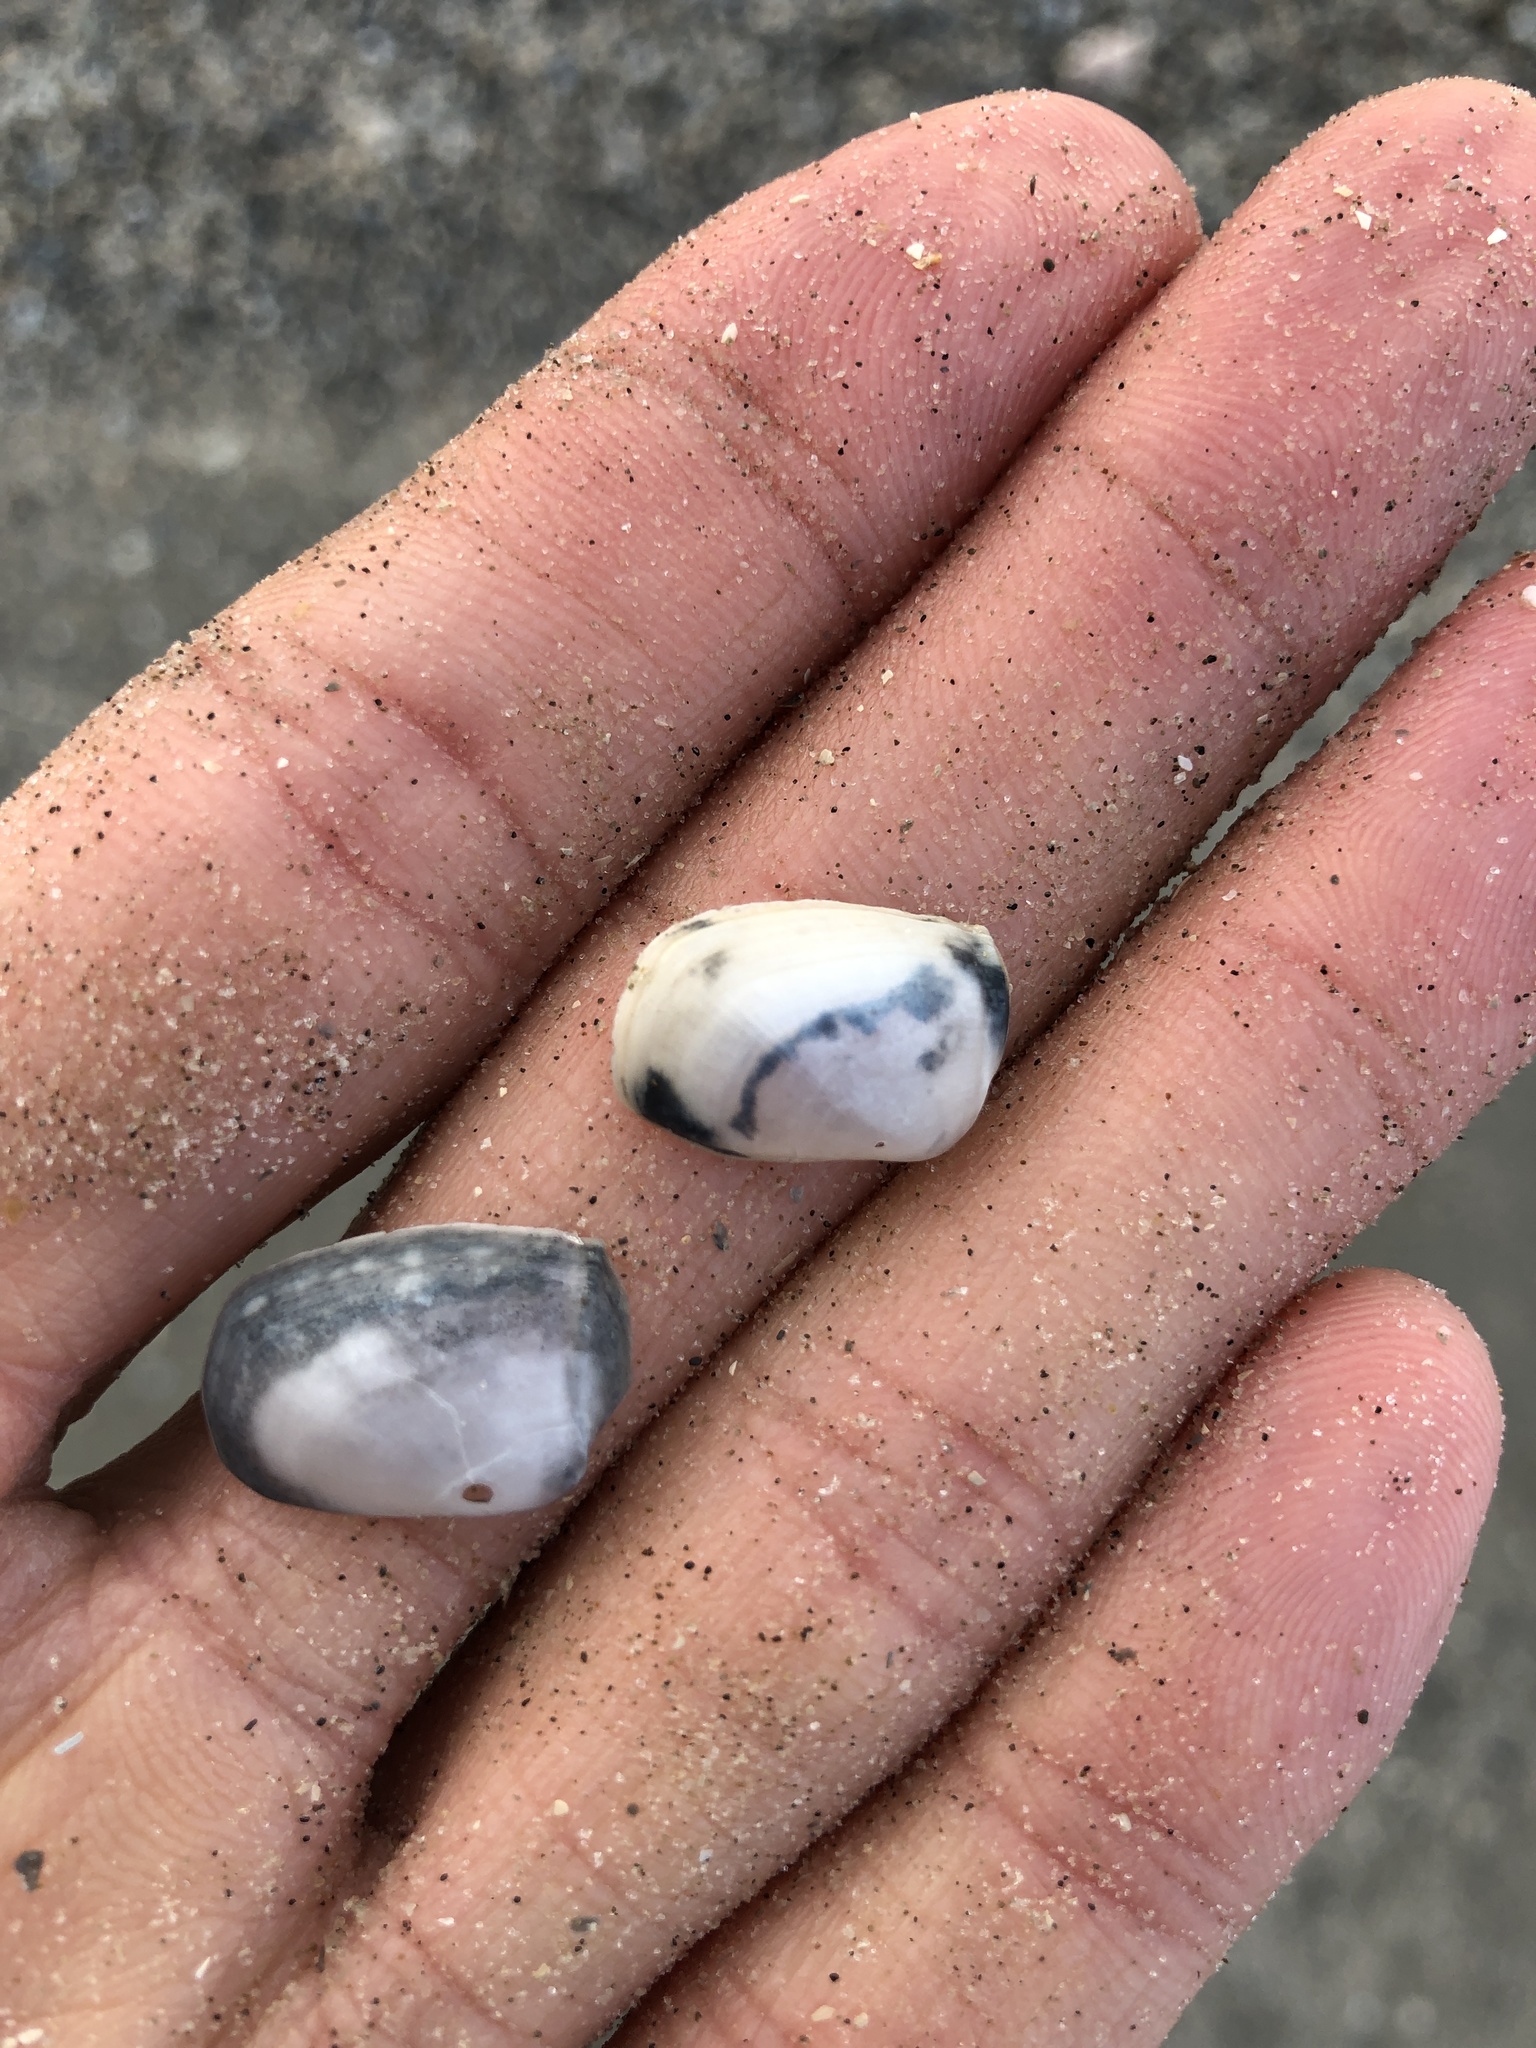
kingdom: Animalia
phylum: Mollusca
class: Bivalvia
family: Periplomatidae
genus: Periploma
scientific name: Periploma inequale
